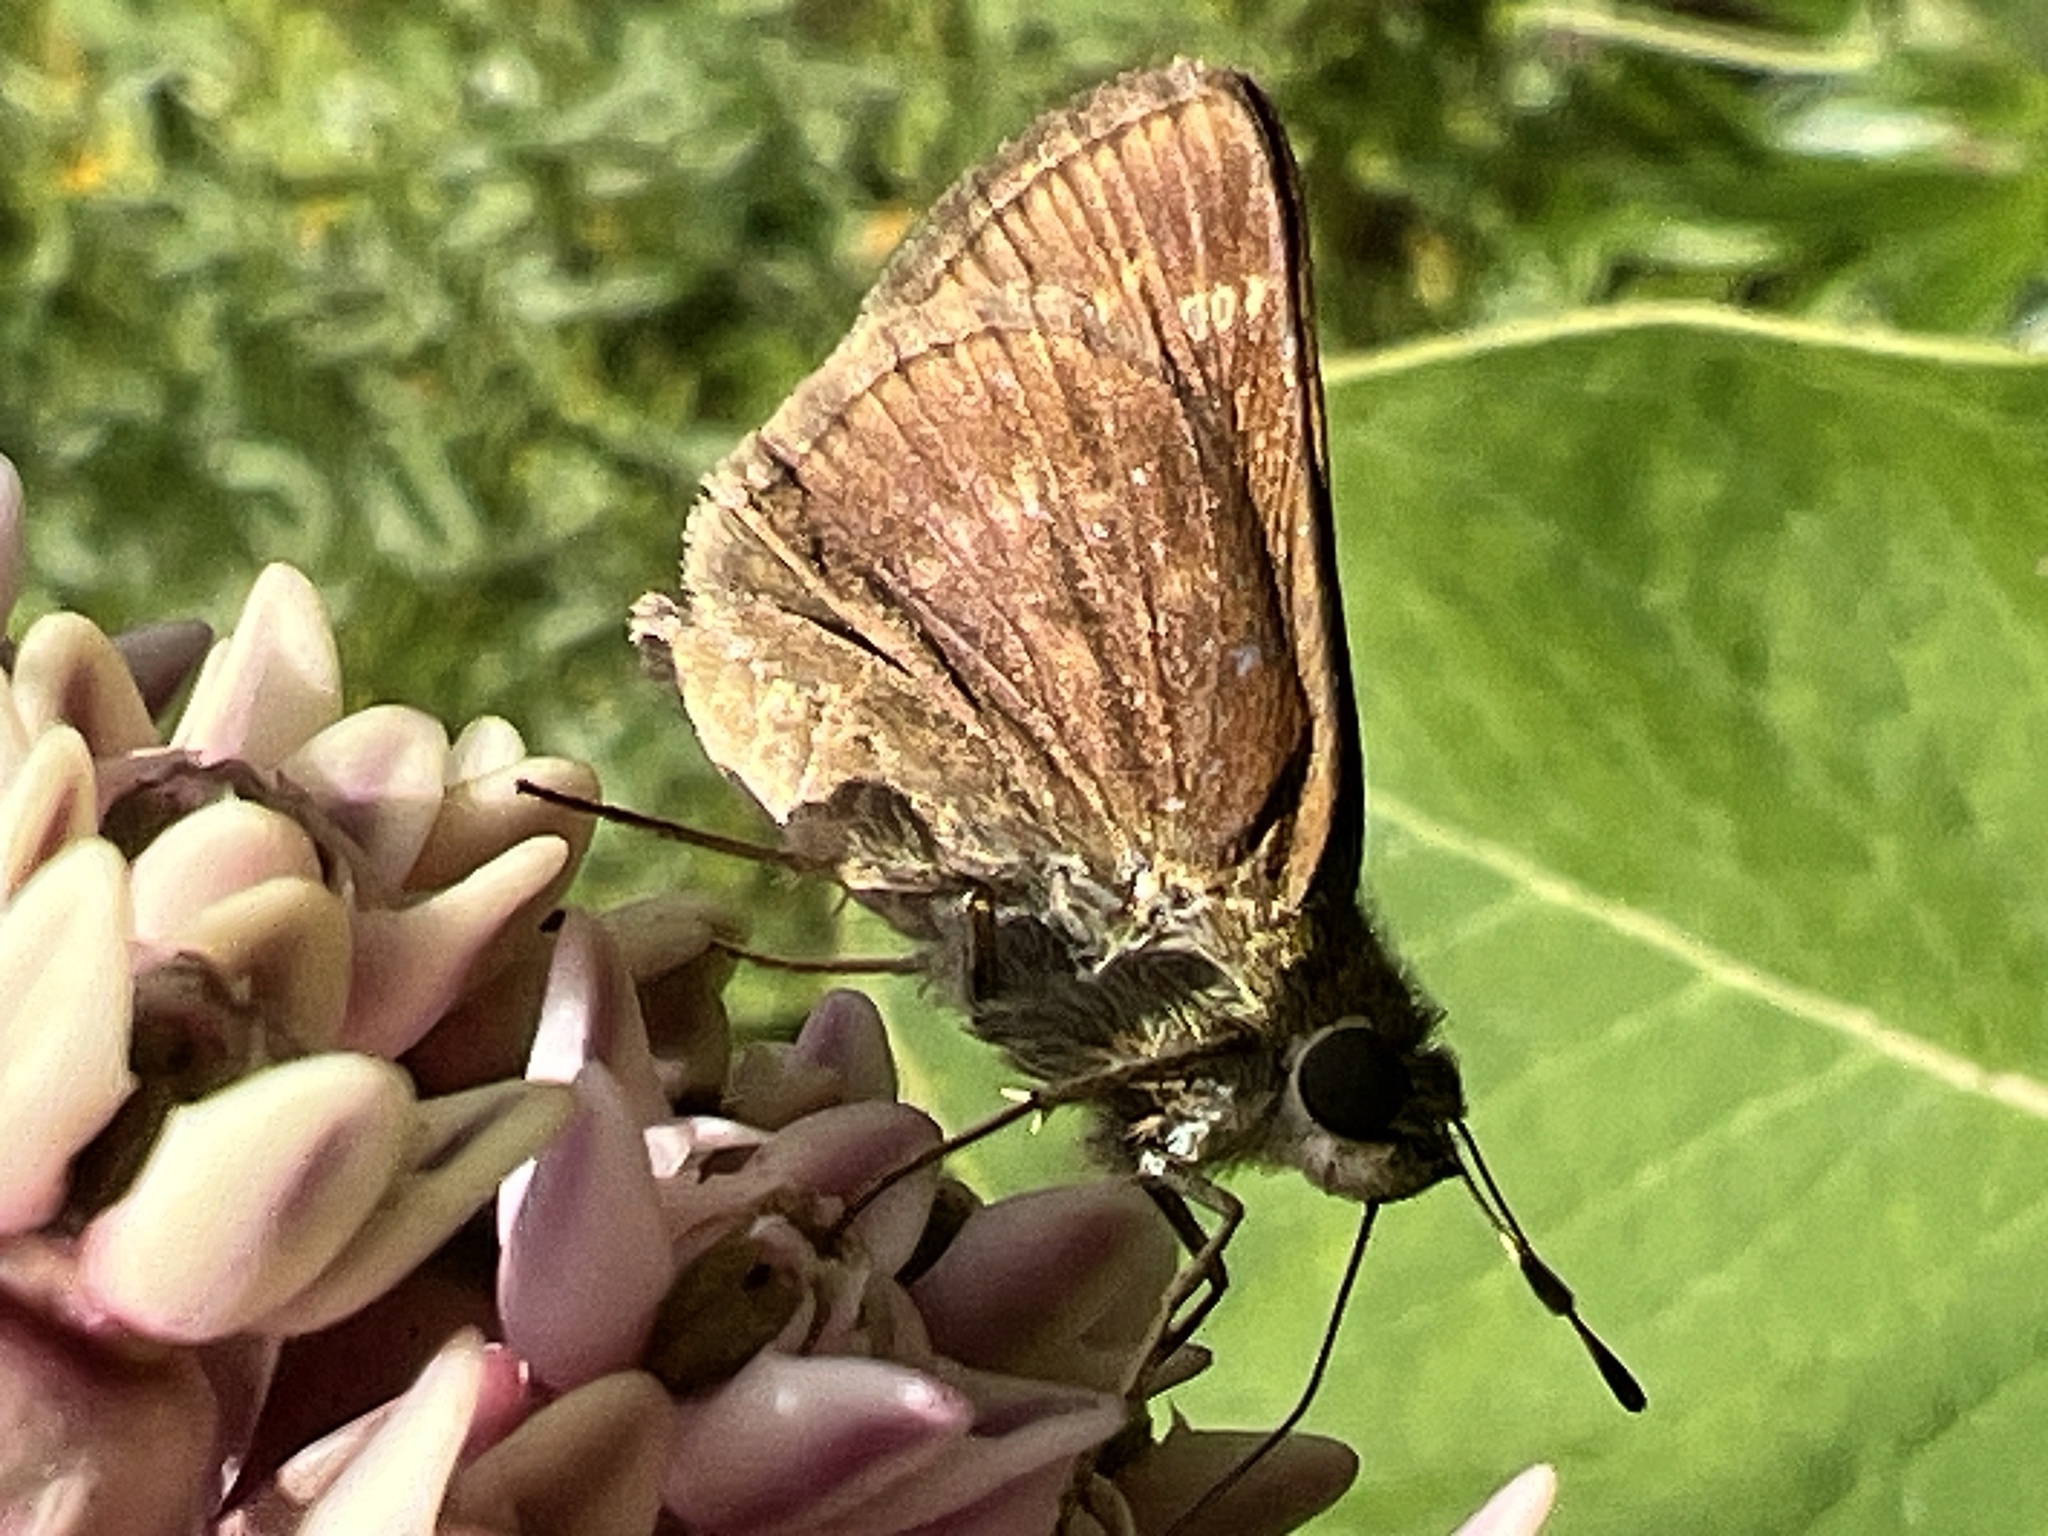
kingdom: Animalia
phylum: Arthropoda
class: Insecta
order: Lepidoptera
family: Hesperiidae
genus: Vernia
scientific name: Vernia verna
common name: Little glassywing
